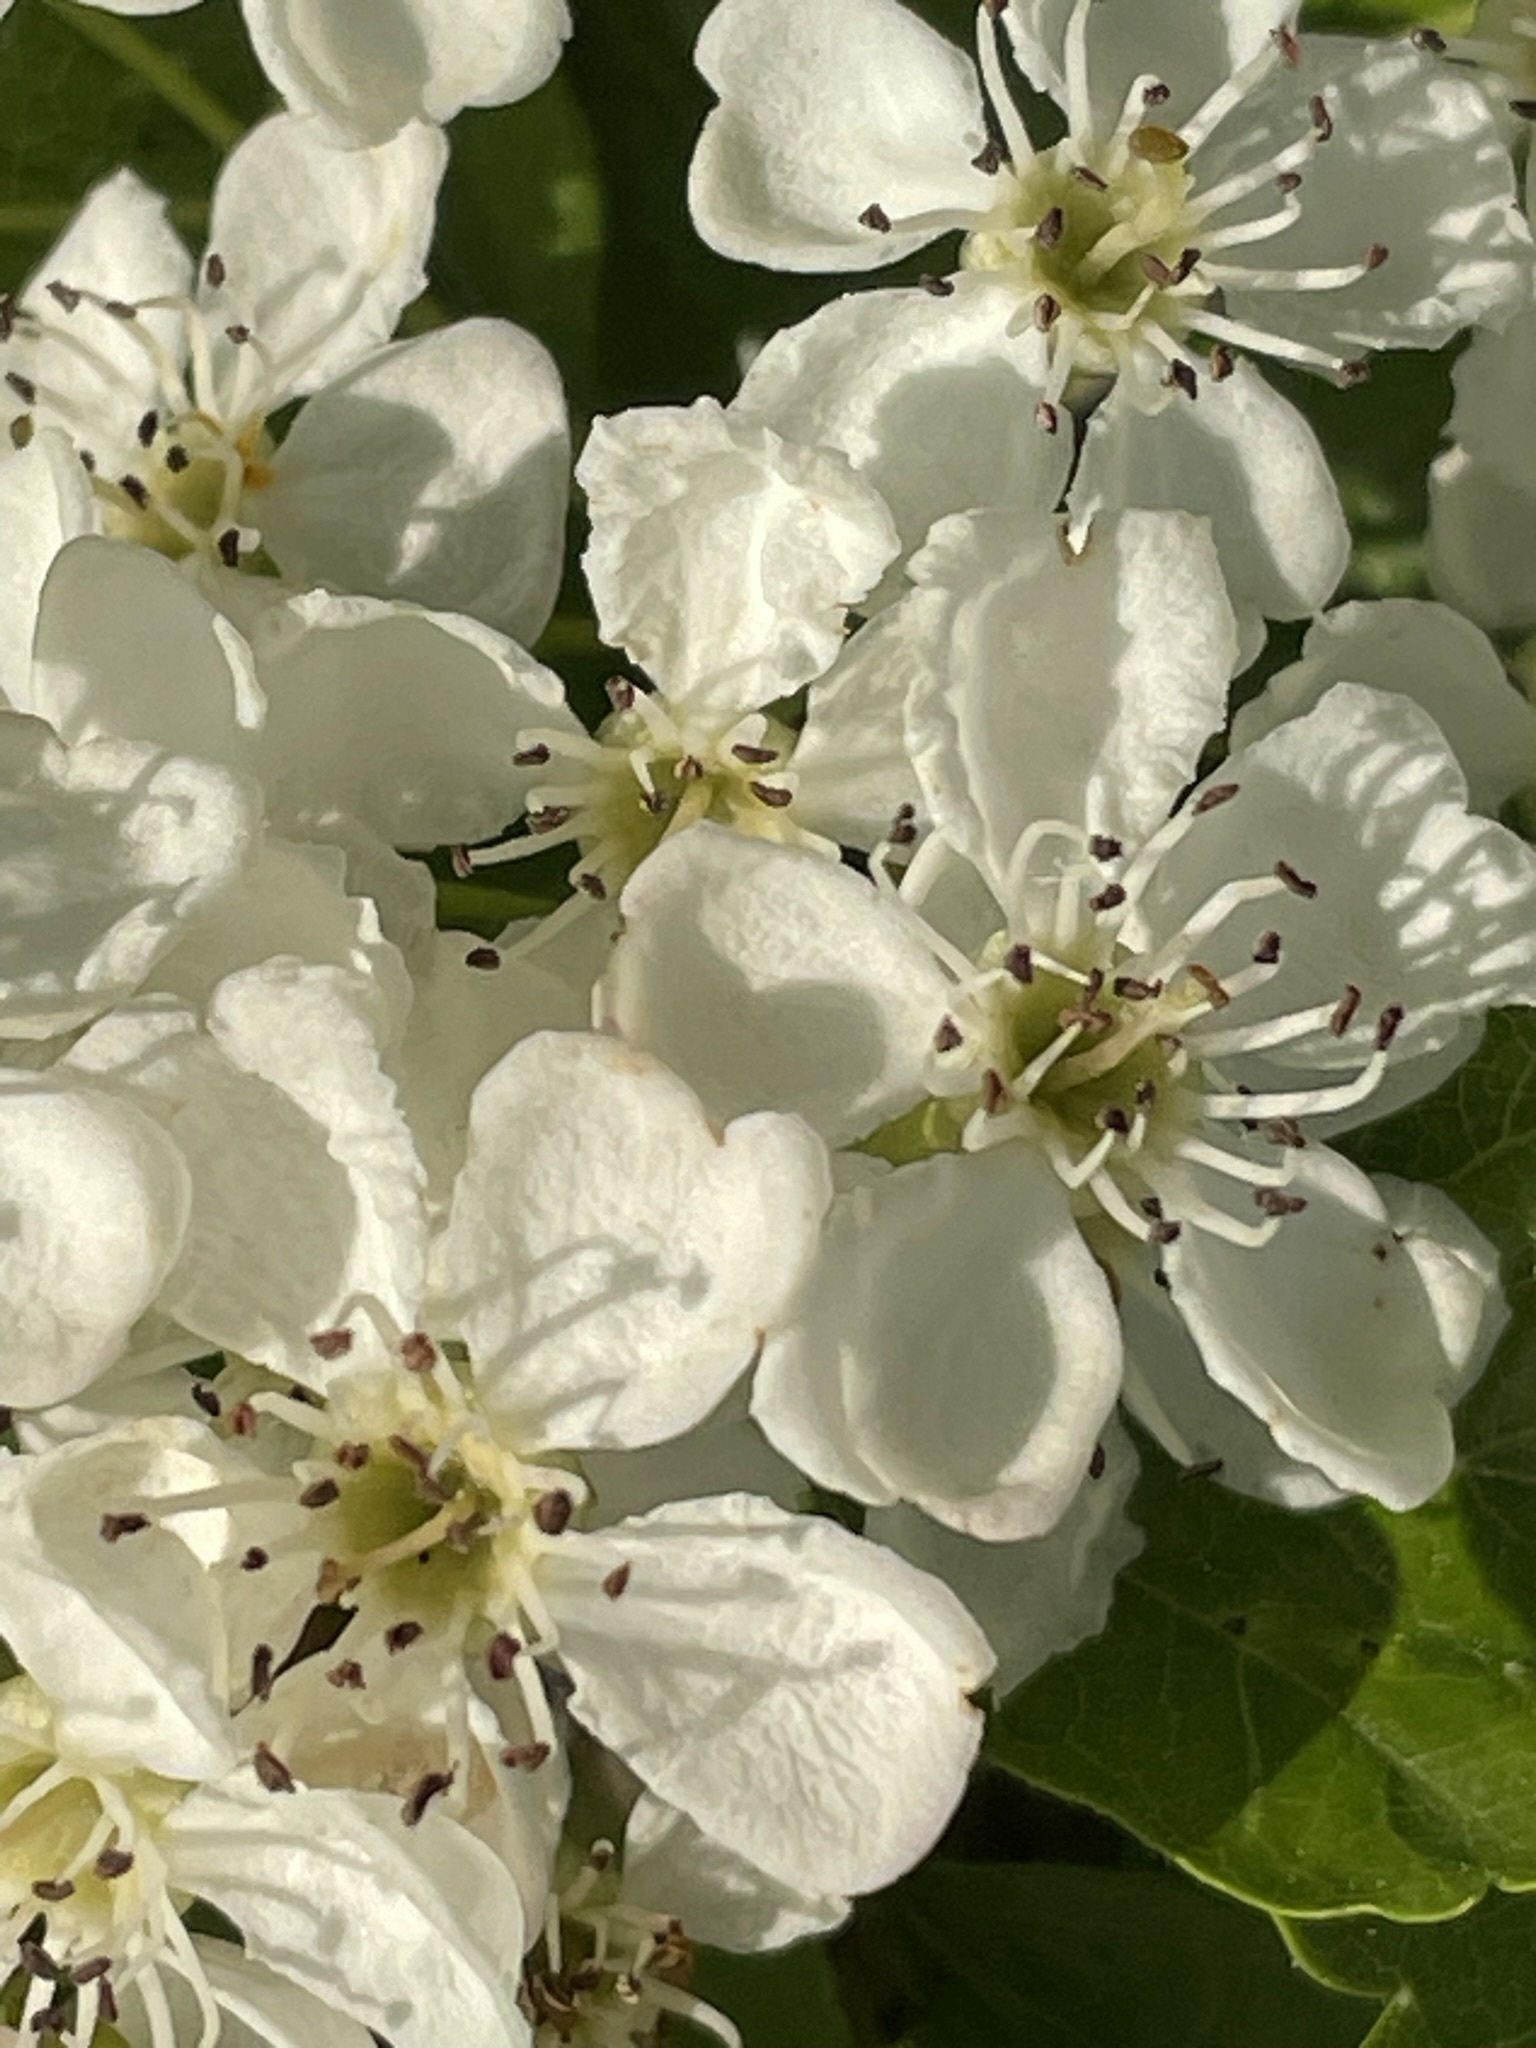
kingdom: Plantae
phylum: Tracheophyta
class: Magnoliopsida
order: Rosales
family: Rosaceae
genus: Crataegus
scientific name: Crataegus monogyna
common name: Hawthorn
